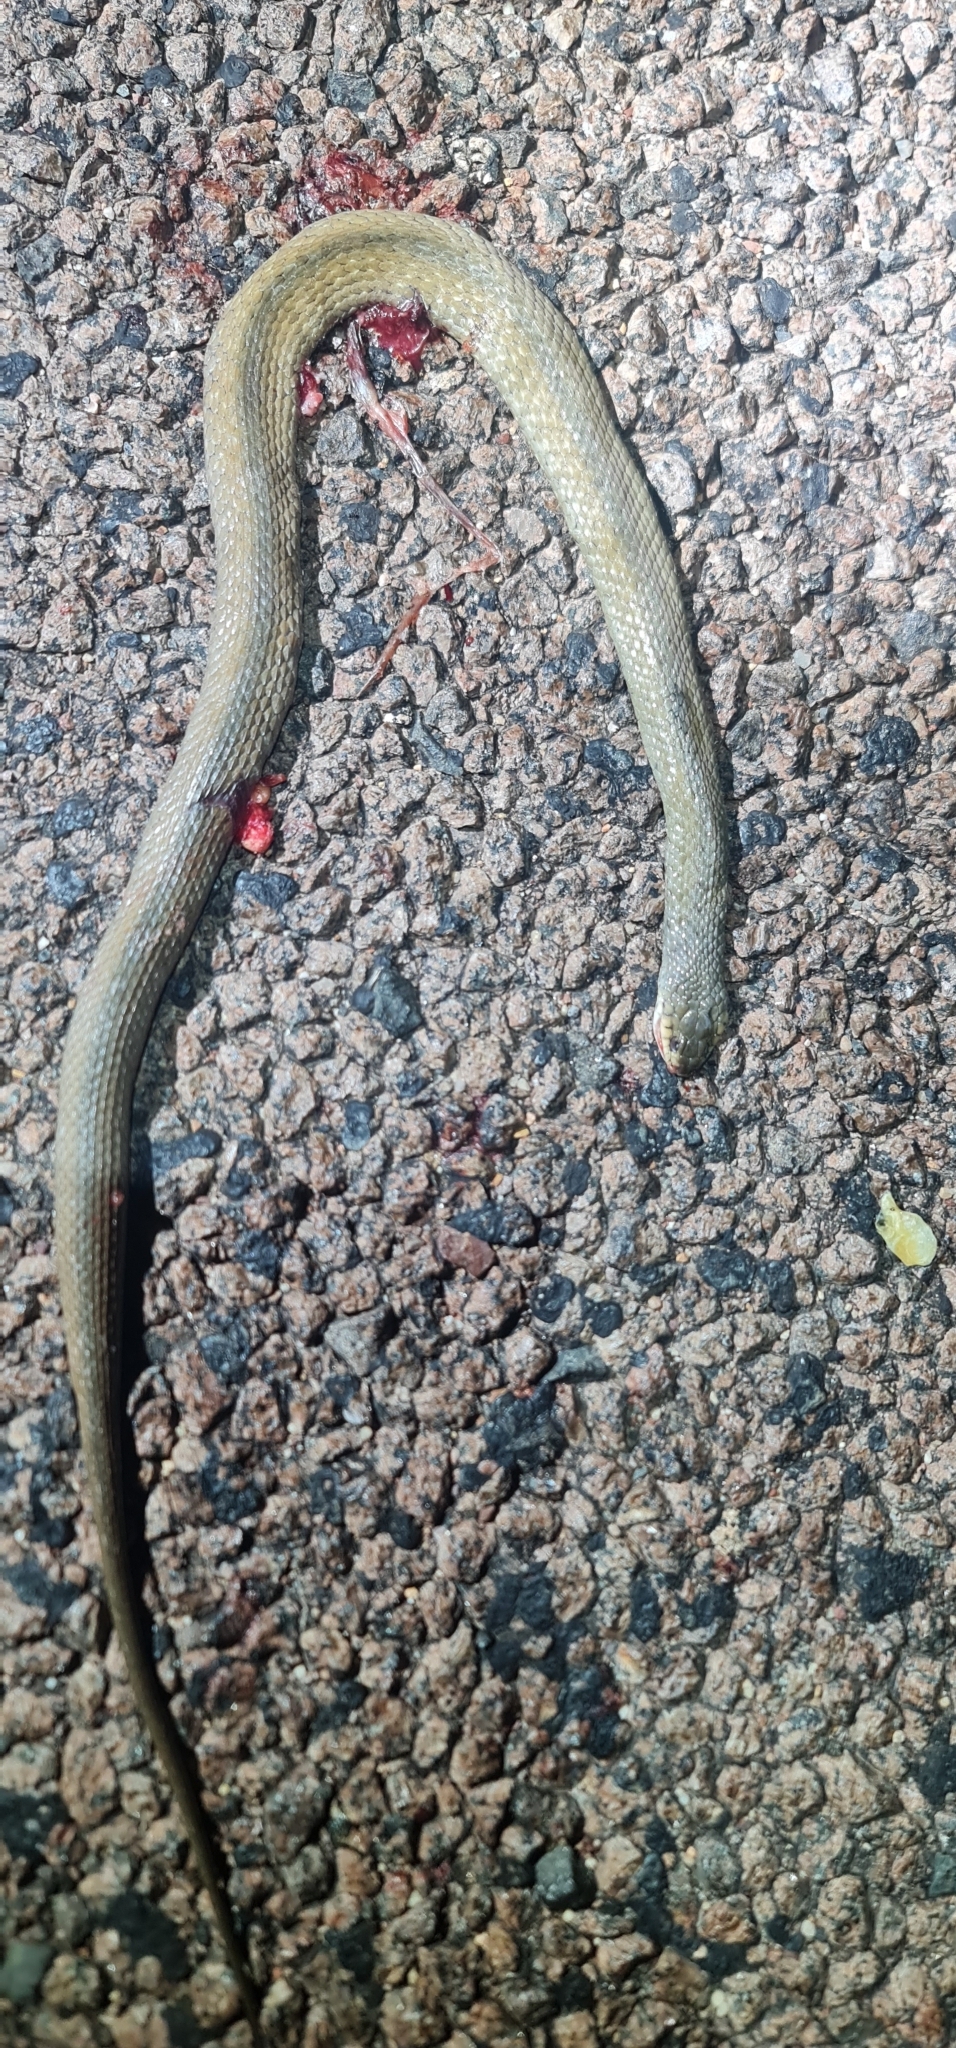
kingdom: Animalia
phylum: Chordata
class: Squamata
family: Colubridae
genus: Tropidonophis
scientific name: Tropidonophis mairii
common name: Common keelback
